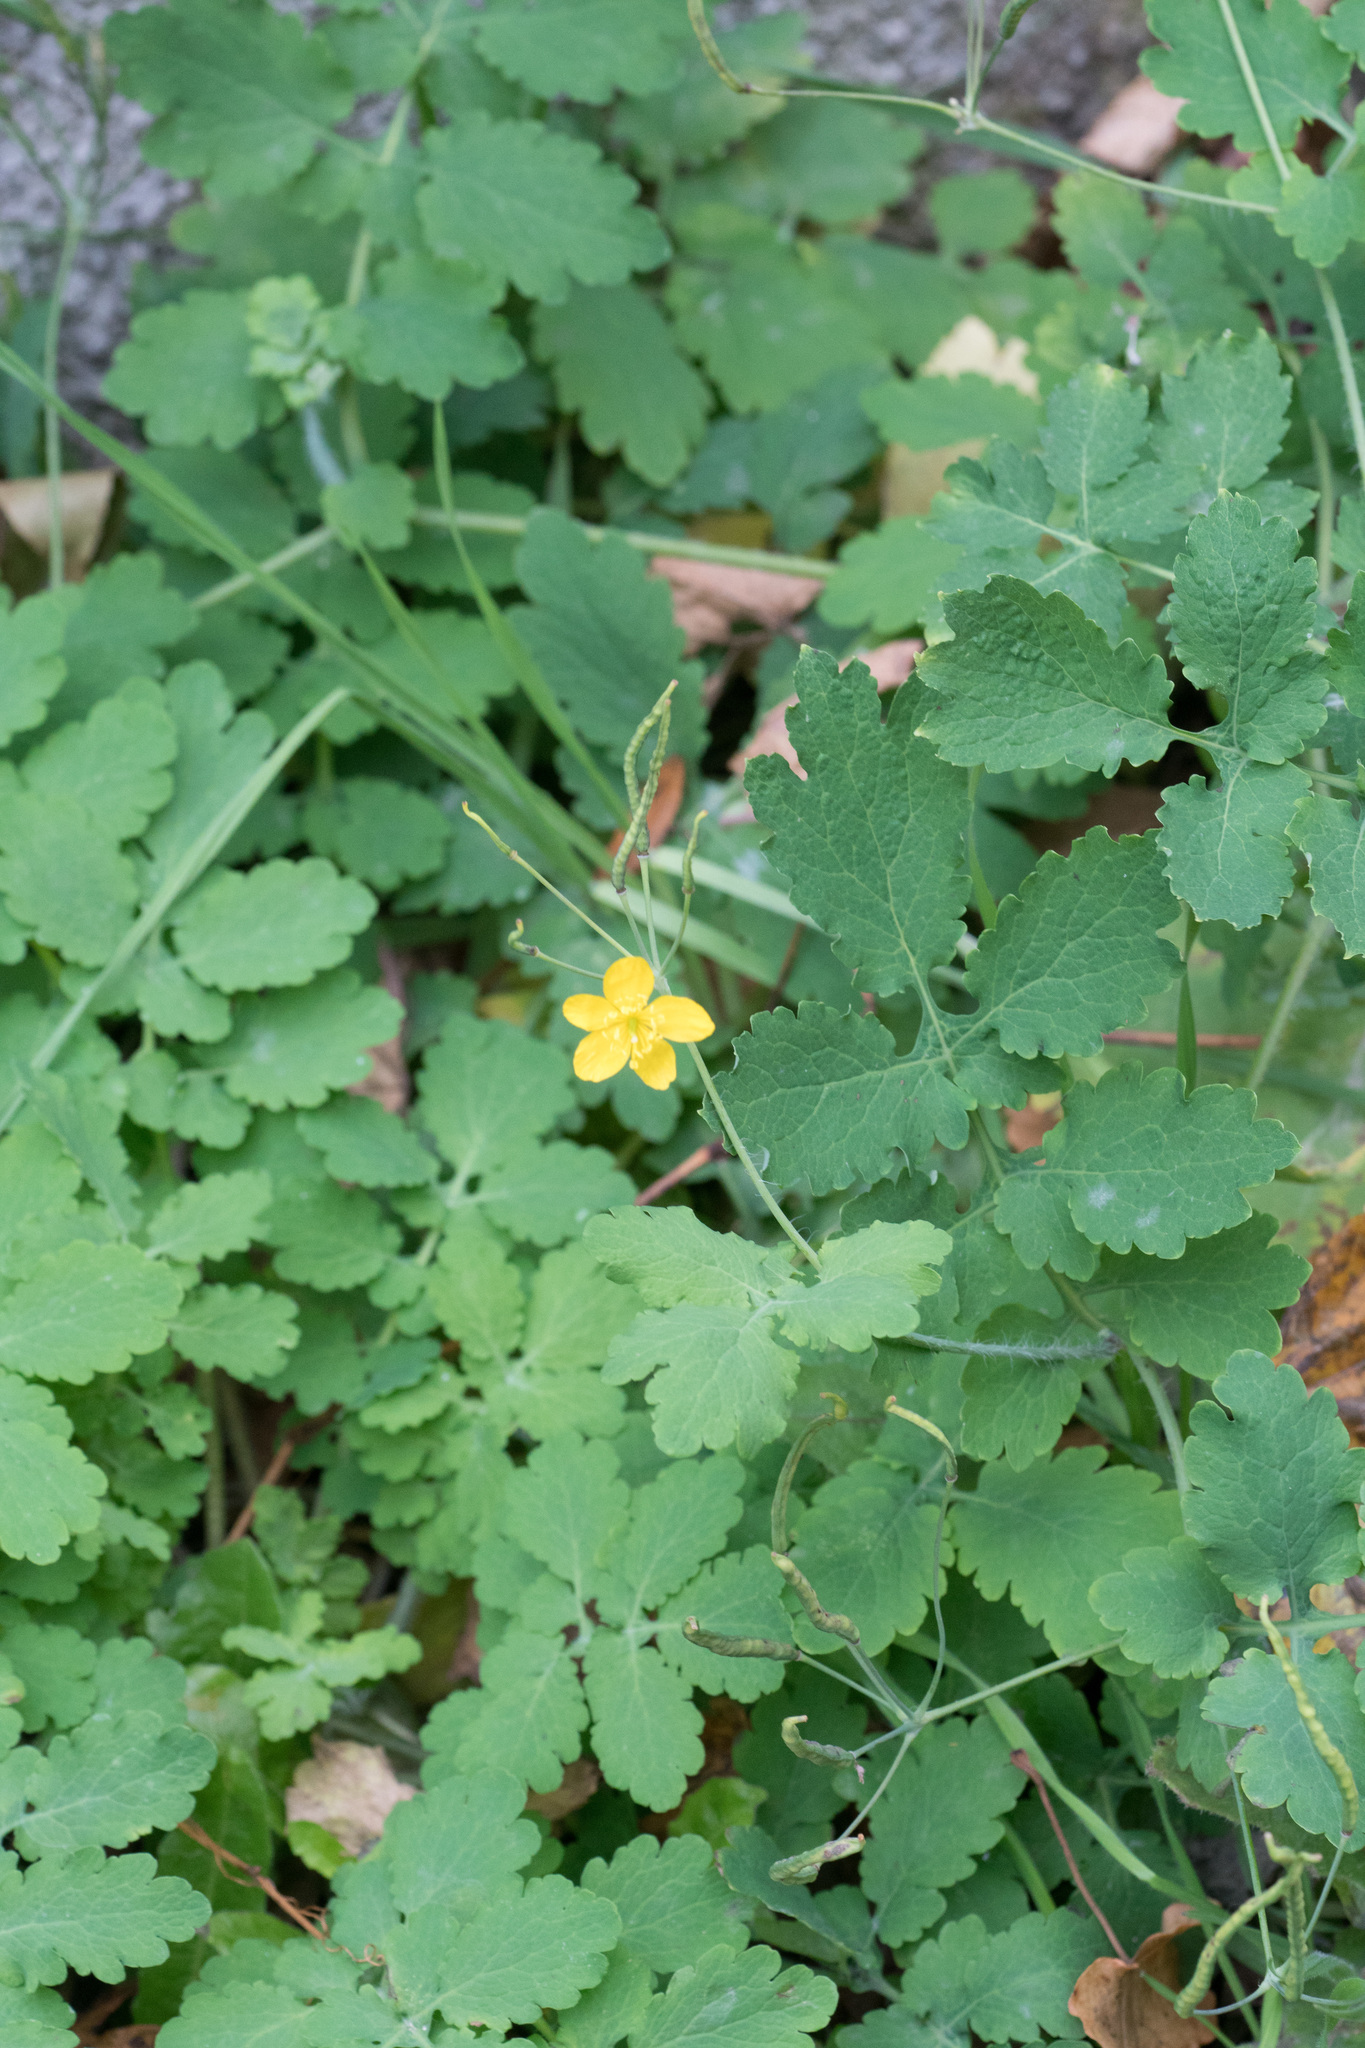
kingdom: Plantae
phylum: Tracheophyta
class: Magnoliopsida
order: Ranunculales
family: Papaveraceae
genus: Chelidonium
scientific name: Chelidonium majus
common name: Greater celandine
